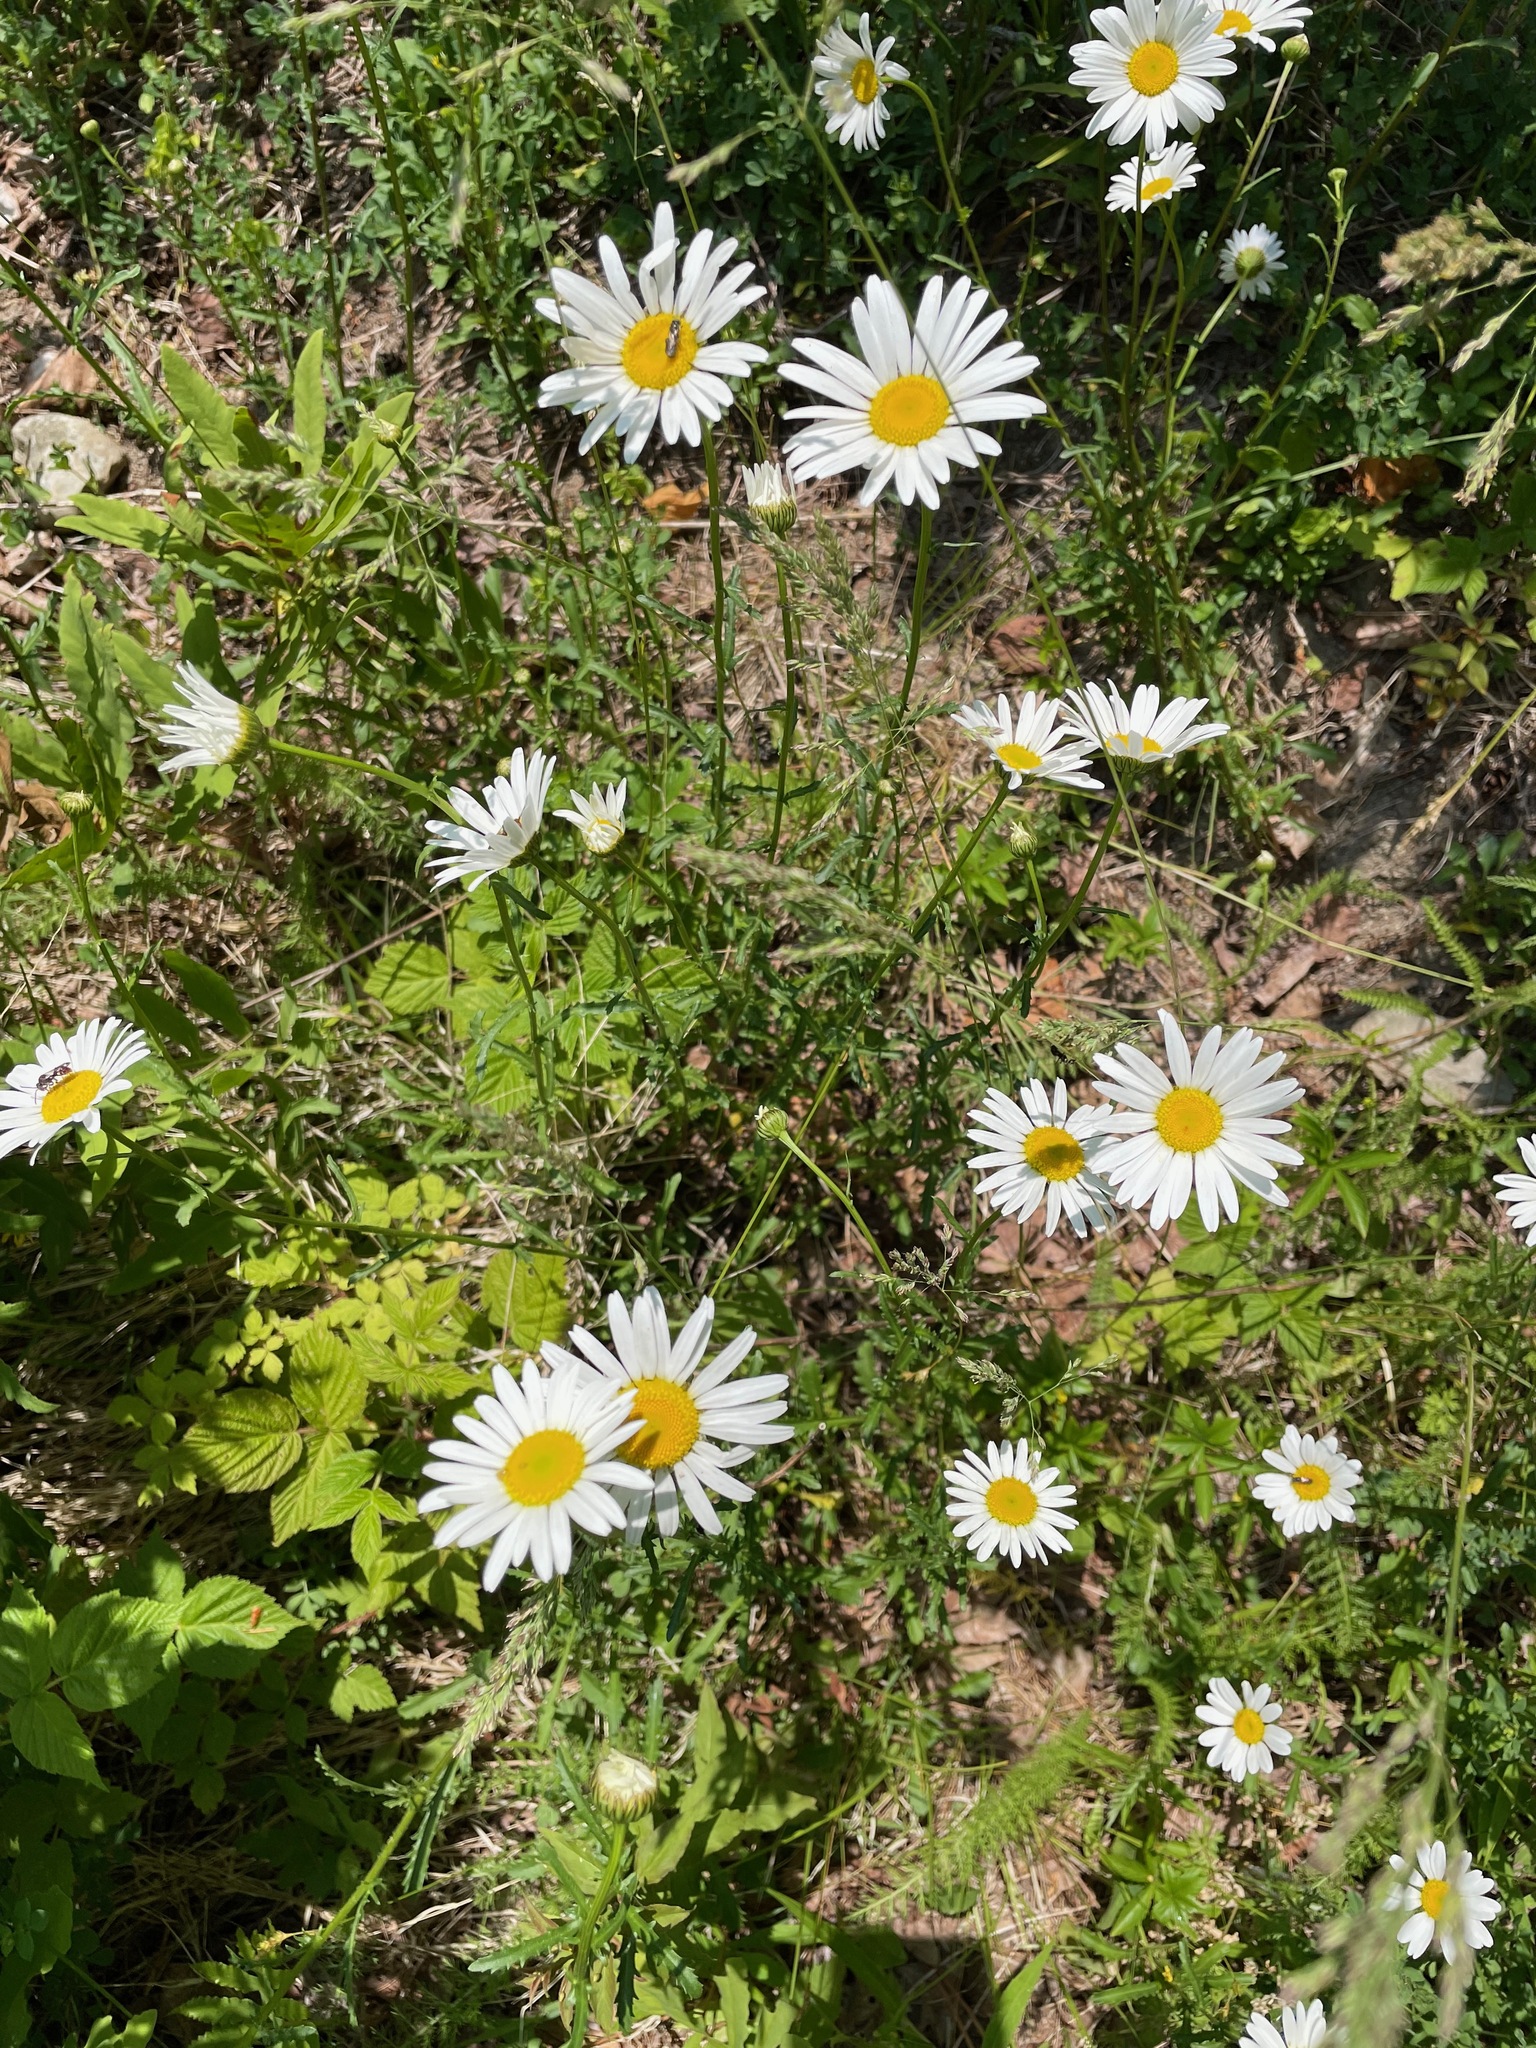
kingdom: Plantae
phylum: Tracheophyta
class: Magnoliopsida
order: Asterales
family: Asteraceae
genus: Leucanthemum
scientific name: Leucanthemum vulgare
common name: Oxeye daisy
